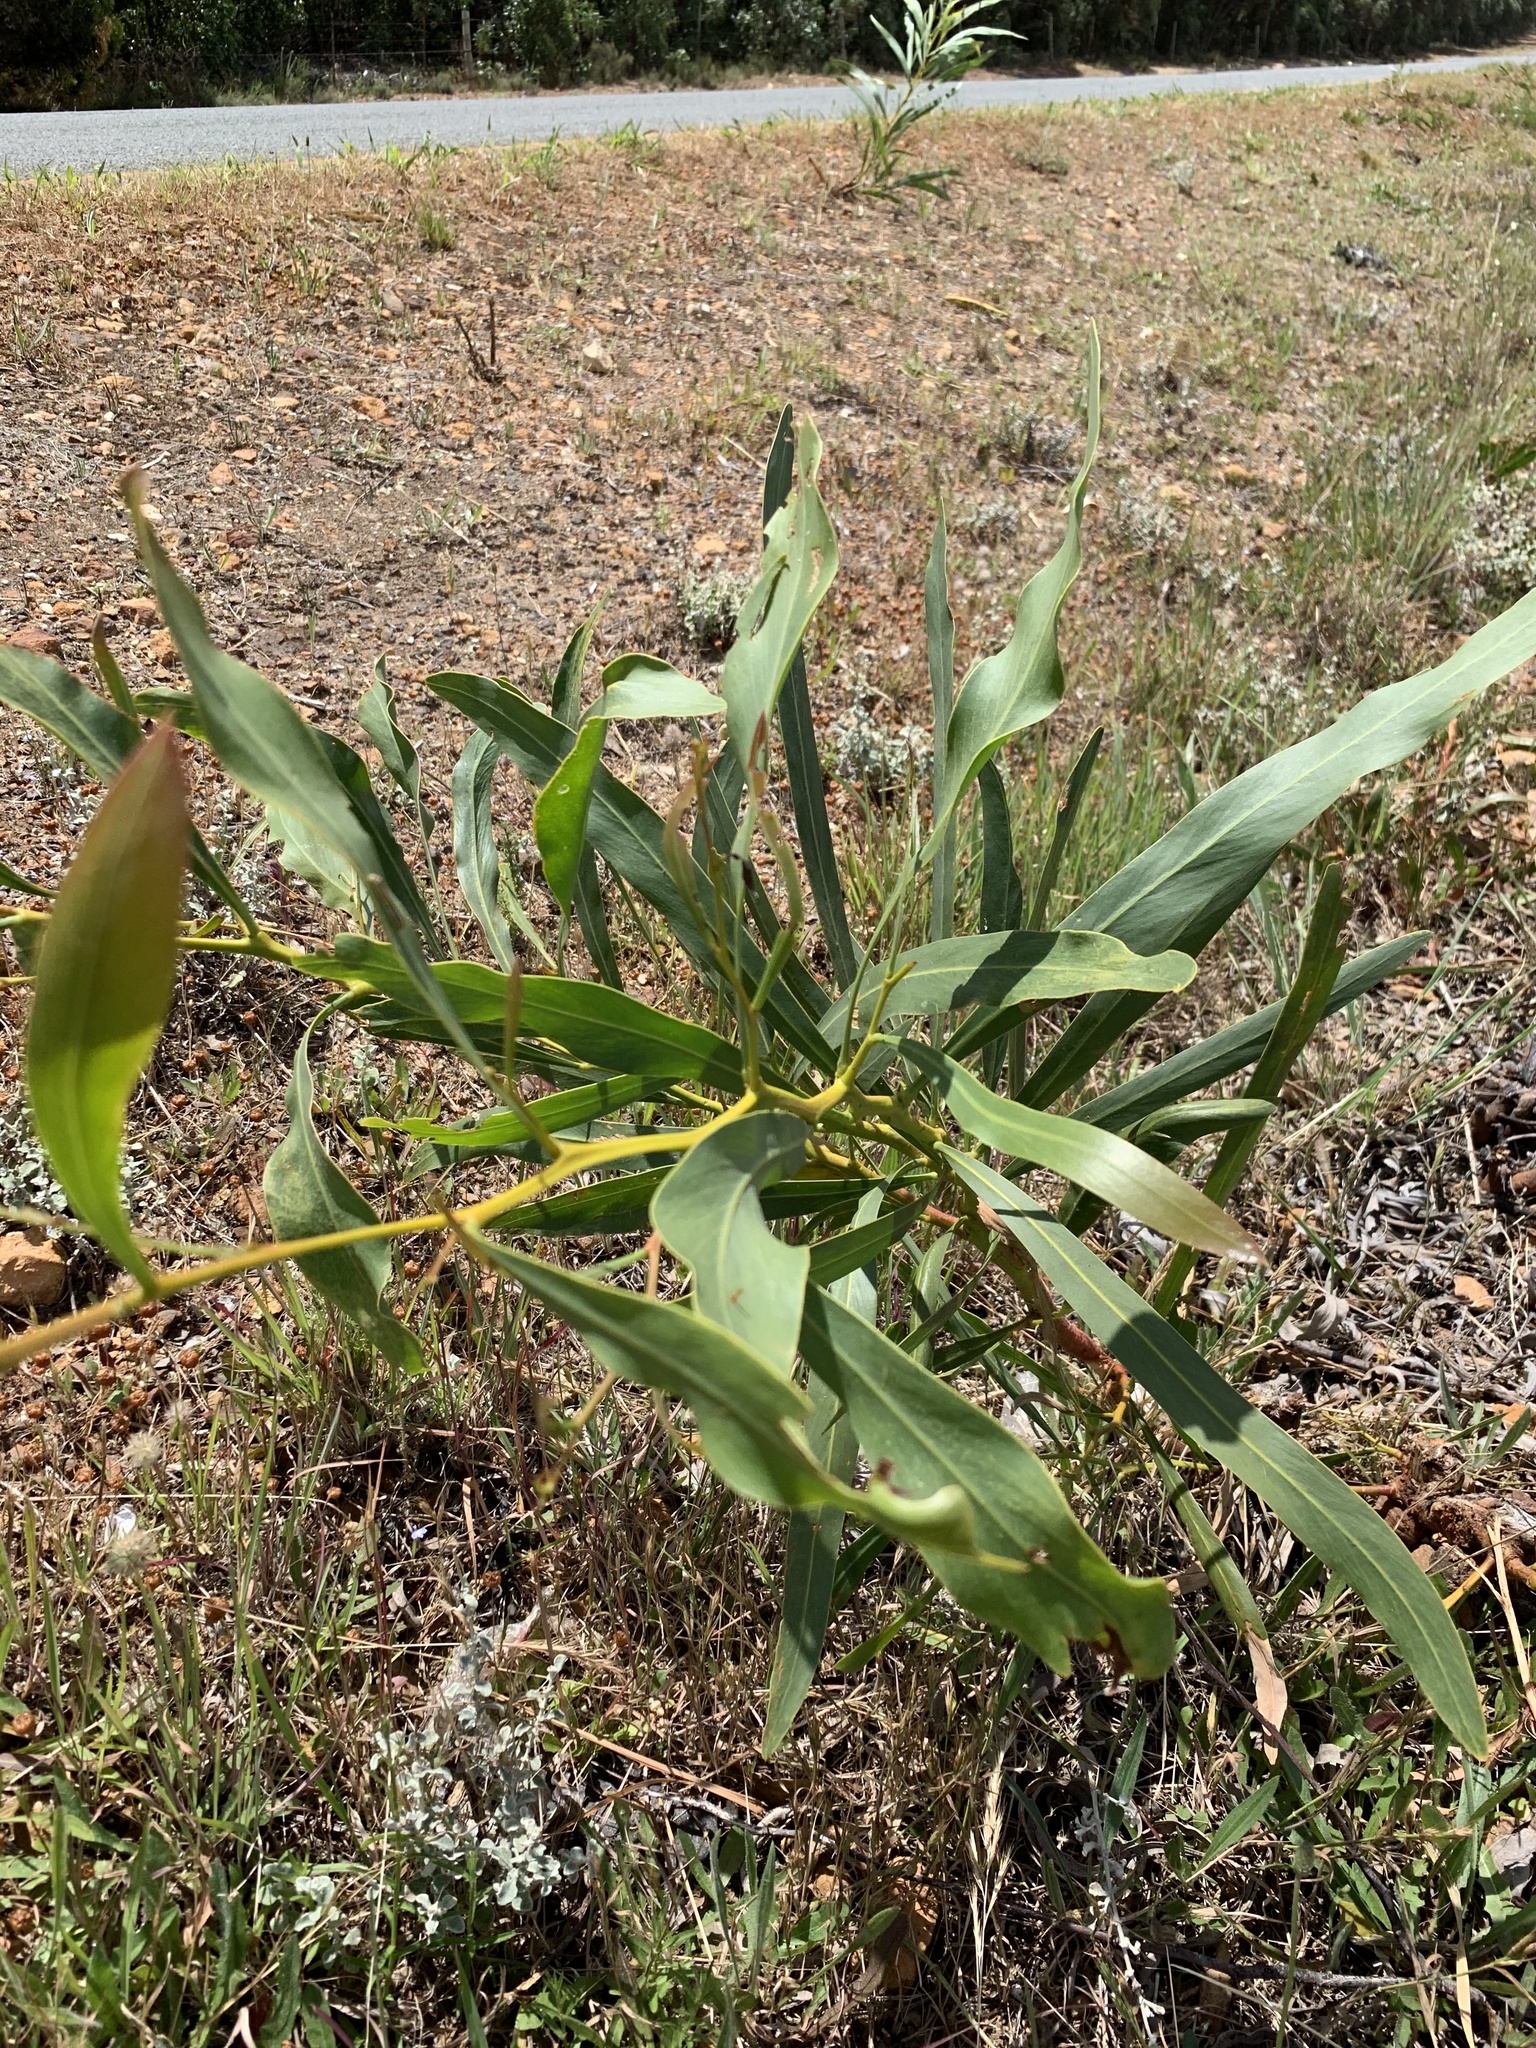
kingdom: Plantae
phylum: Tracheophyta
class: Magnoliopsida
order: Fabales
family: Fabaceae
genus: Acacia
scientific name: Acacia saligna
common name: Orange wattle
